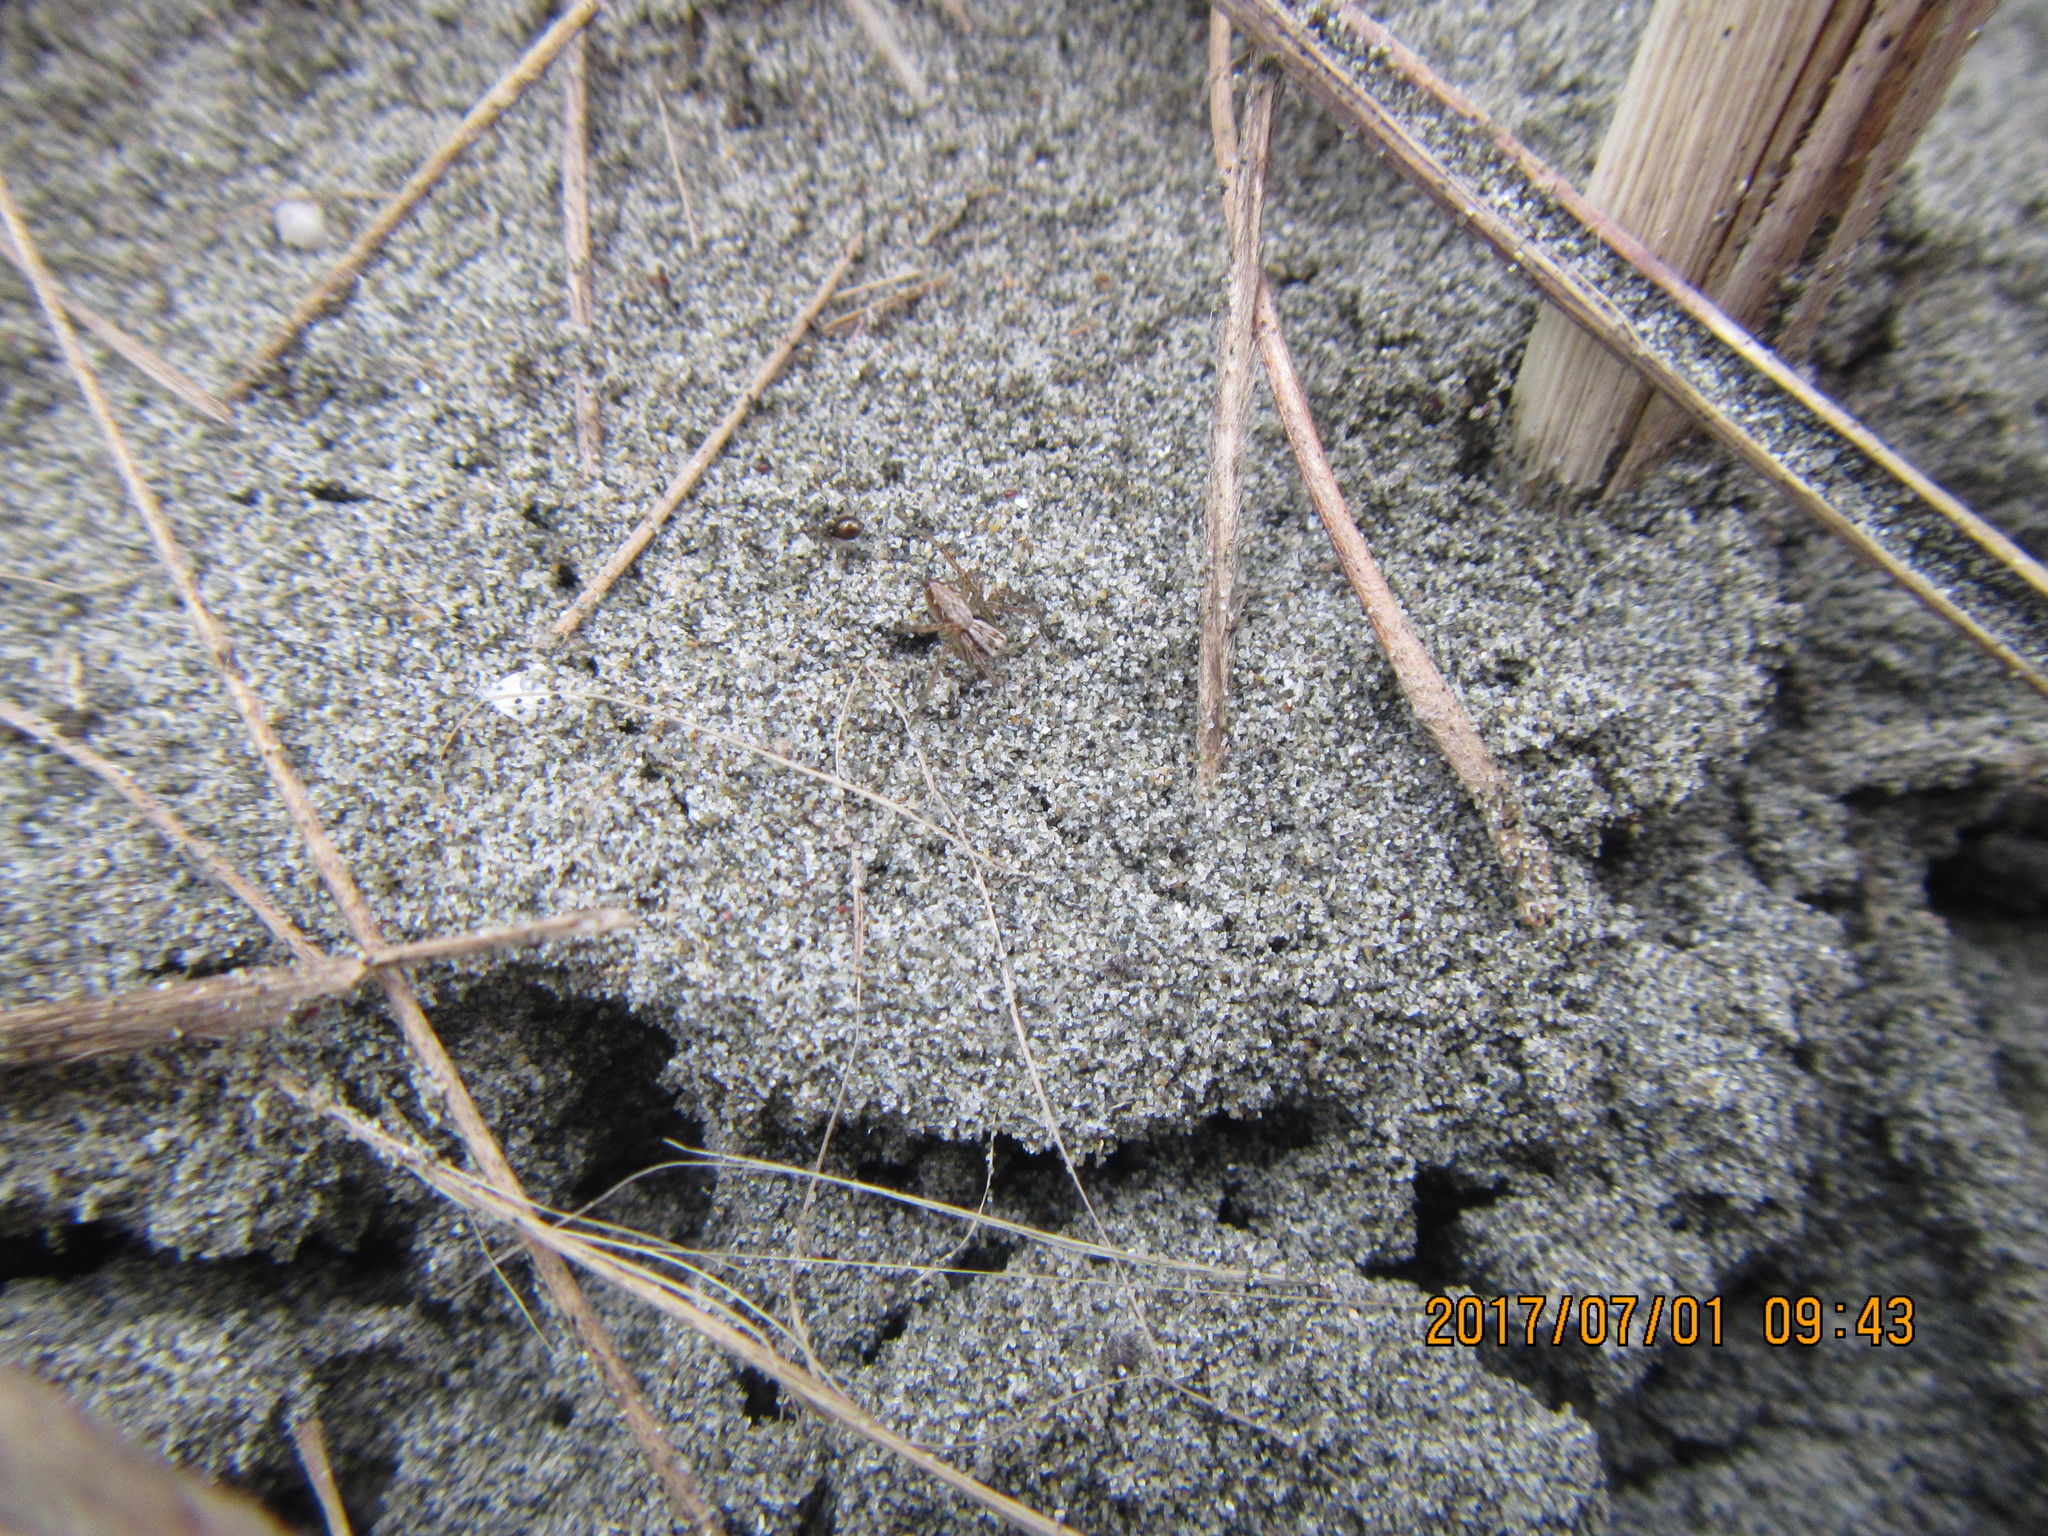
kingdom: Animalia
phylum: Arthropoda
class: Arachnida
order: Araneae
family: Oxyopidae
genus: Oxyopes
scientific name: Oxyopes gracilipes
